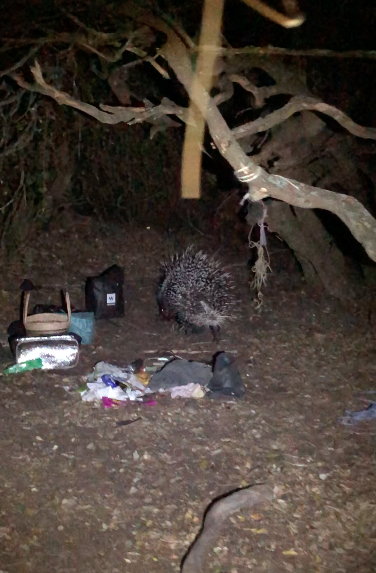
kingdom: Animalia
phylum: Chordata
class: Mammalia
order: Rodentia
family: Hystricidae
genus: Hystrix
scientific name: Hystrix africaeaustralis
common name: Cape porcupine
